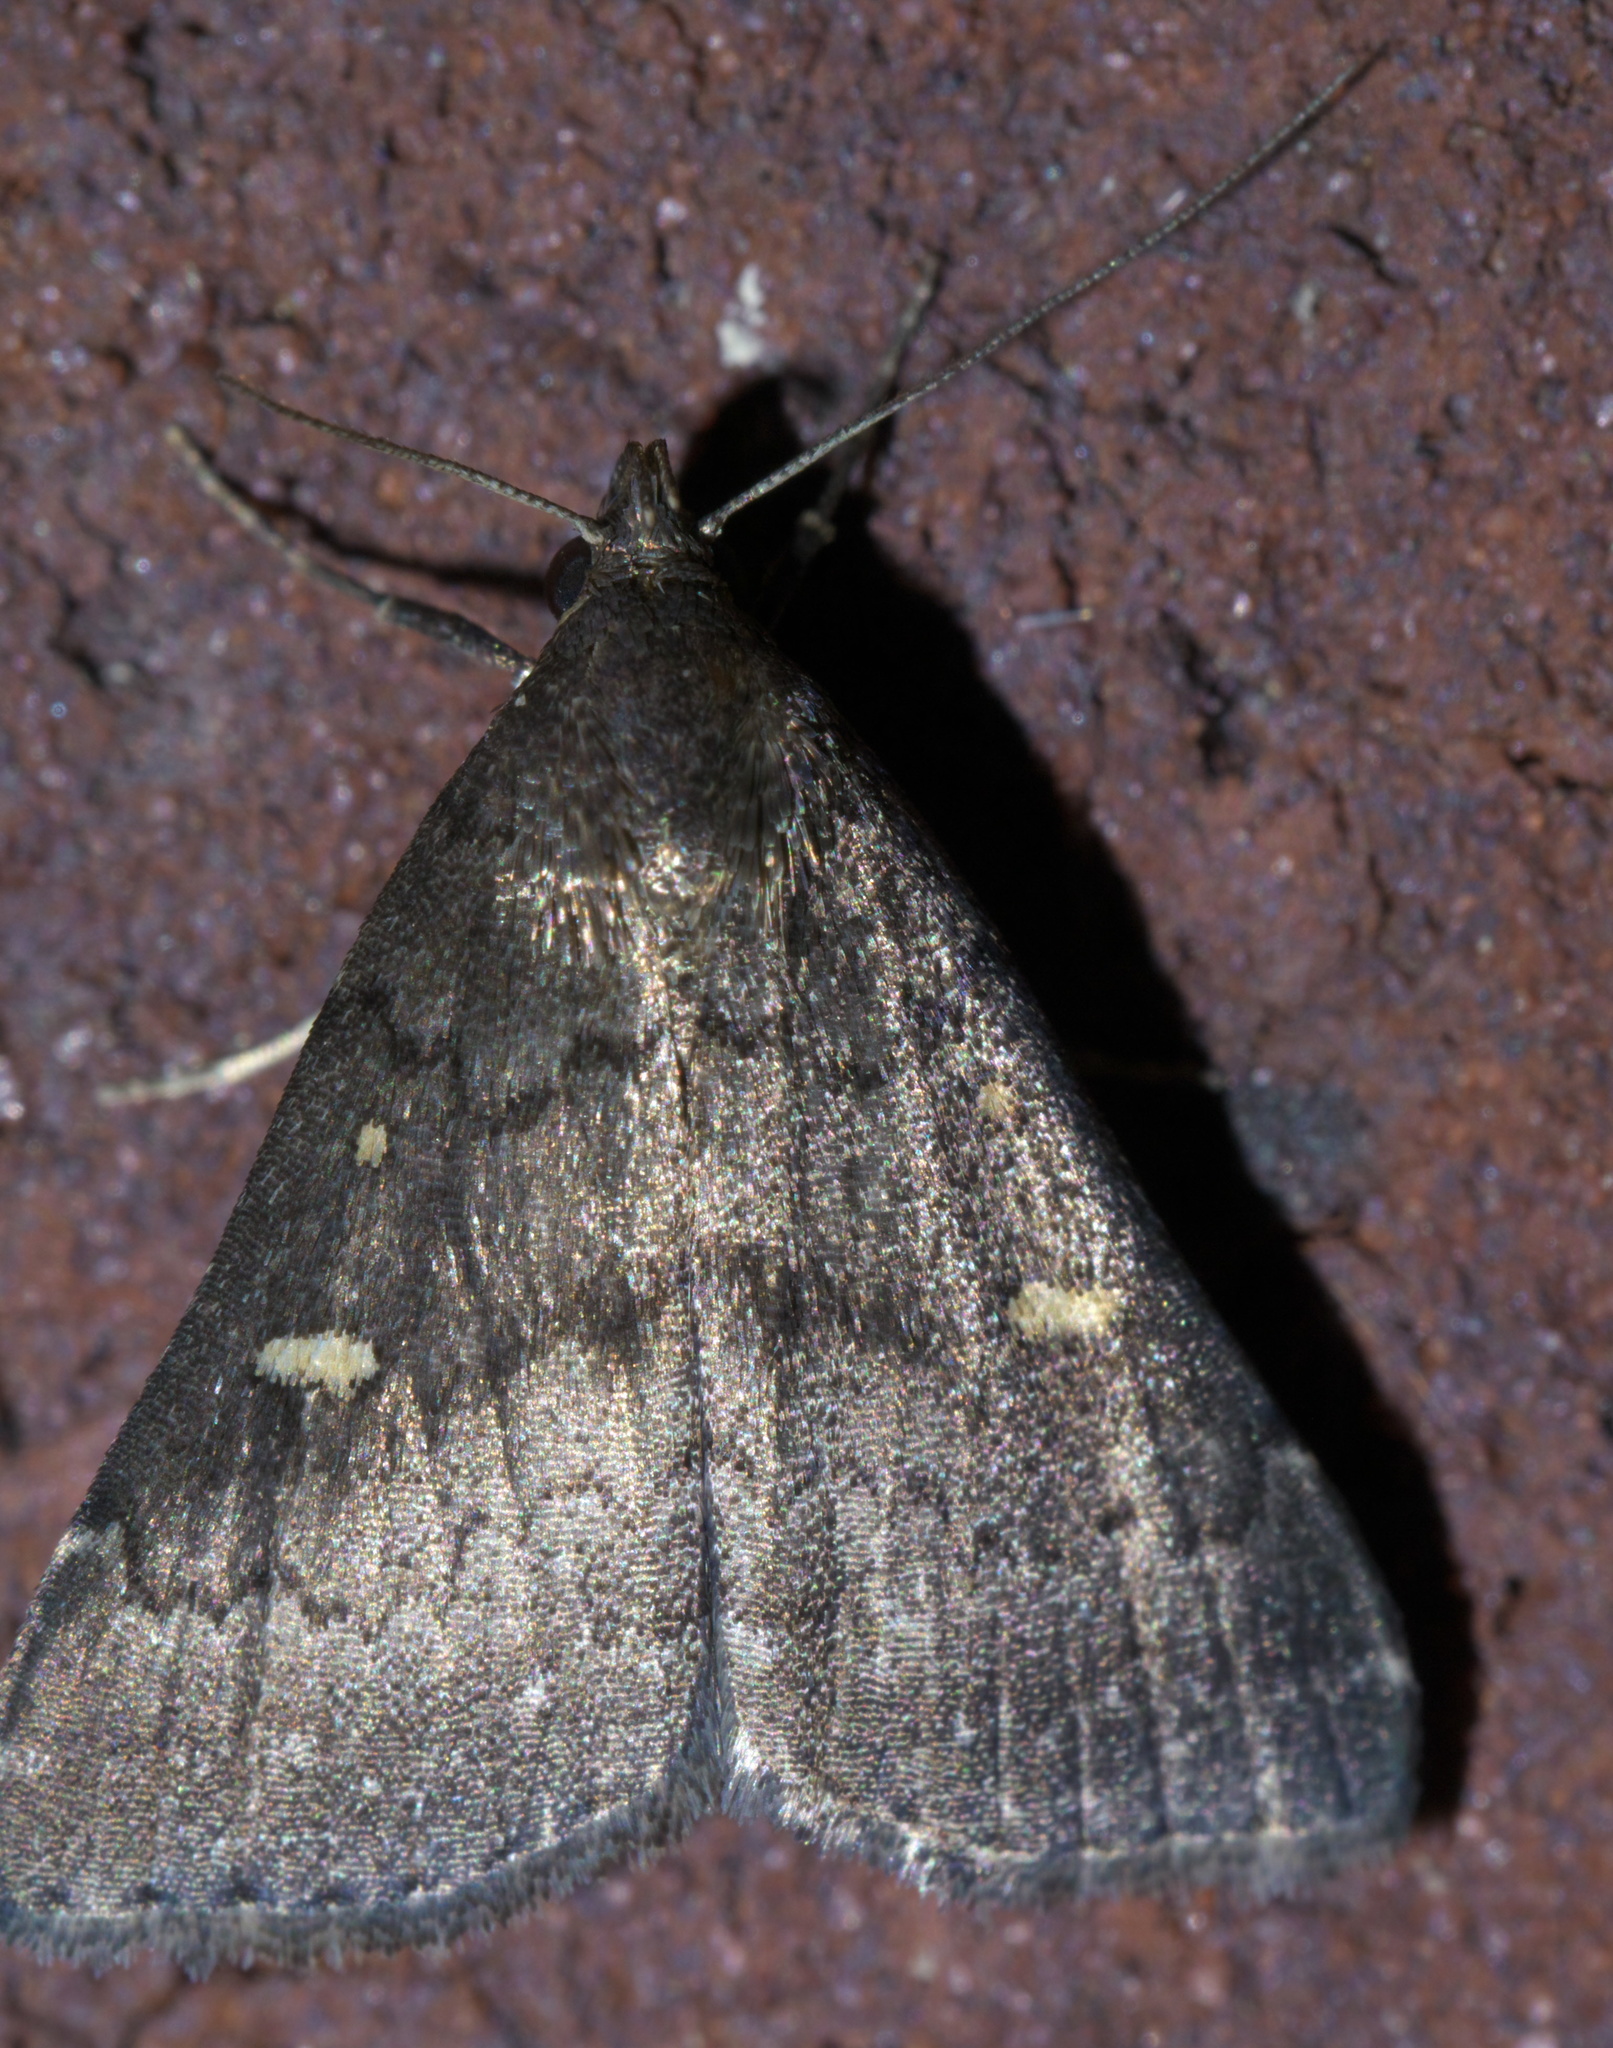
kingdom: Animalia
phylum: Arthropoda
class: Insecta
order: Lepidoptera
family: Erebidae
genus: Tetanolita
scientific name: Tetanolita mynesalis
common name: Smoky tetanolita moth
